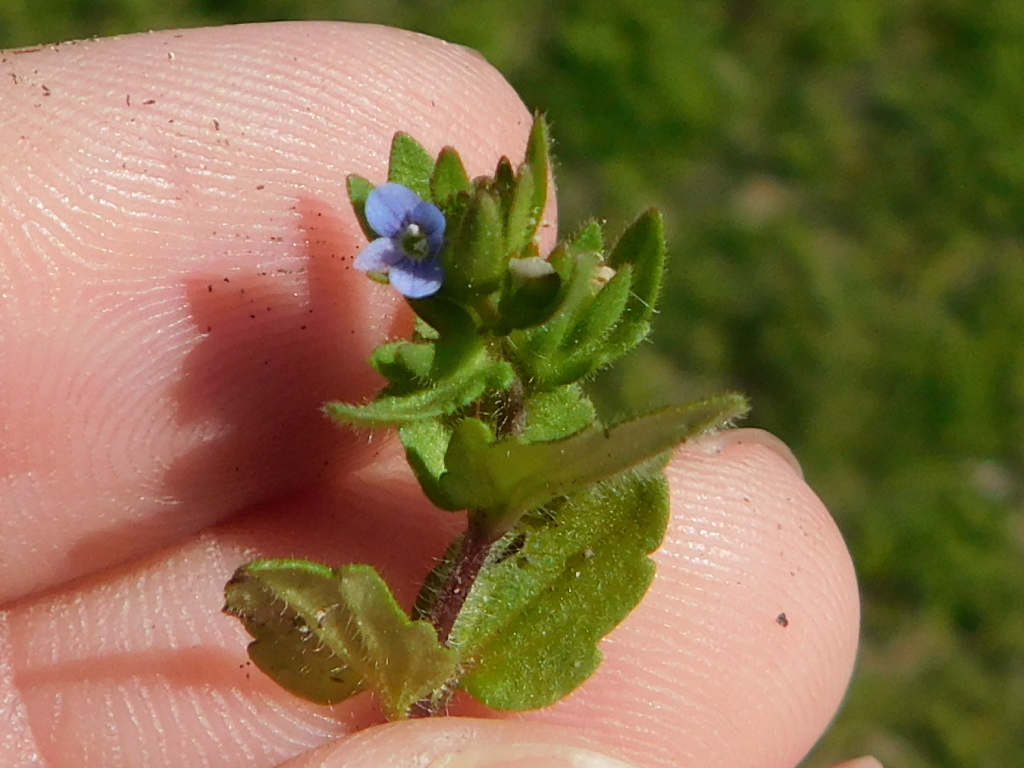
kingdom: Plantae
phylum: Tracheophyta
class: Magnoliopsida
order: Lamiales
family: Plantaginaceae
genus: Veronica
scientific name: Veronica arvensis
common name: Corn speedwell
